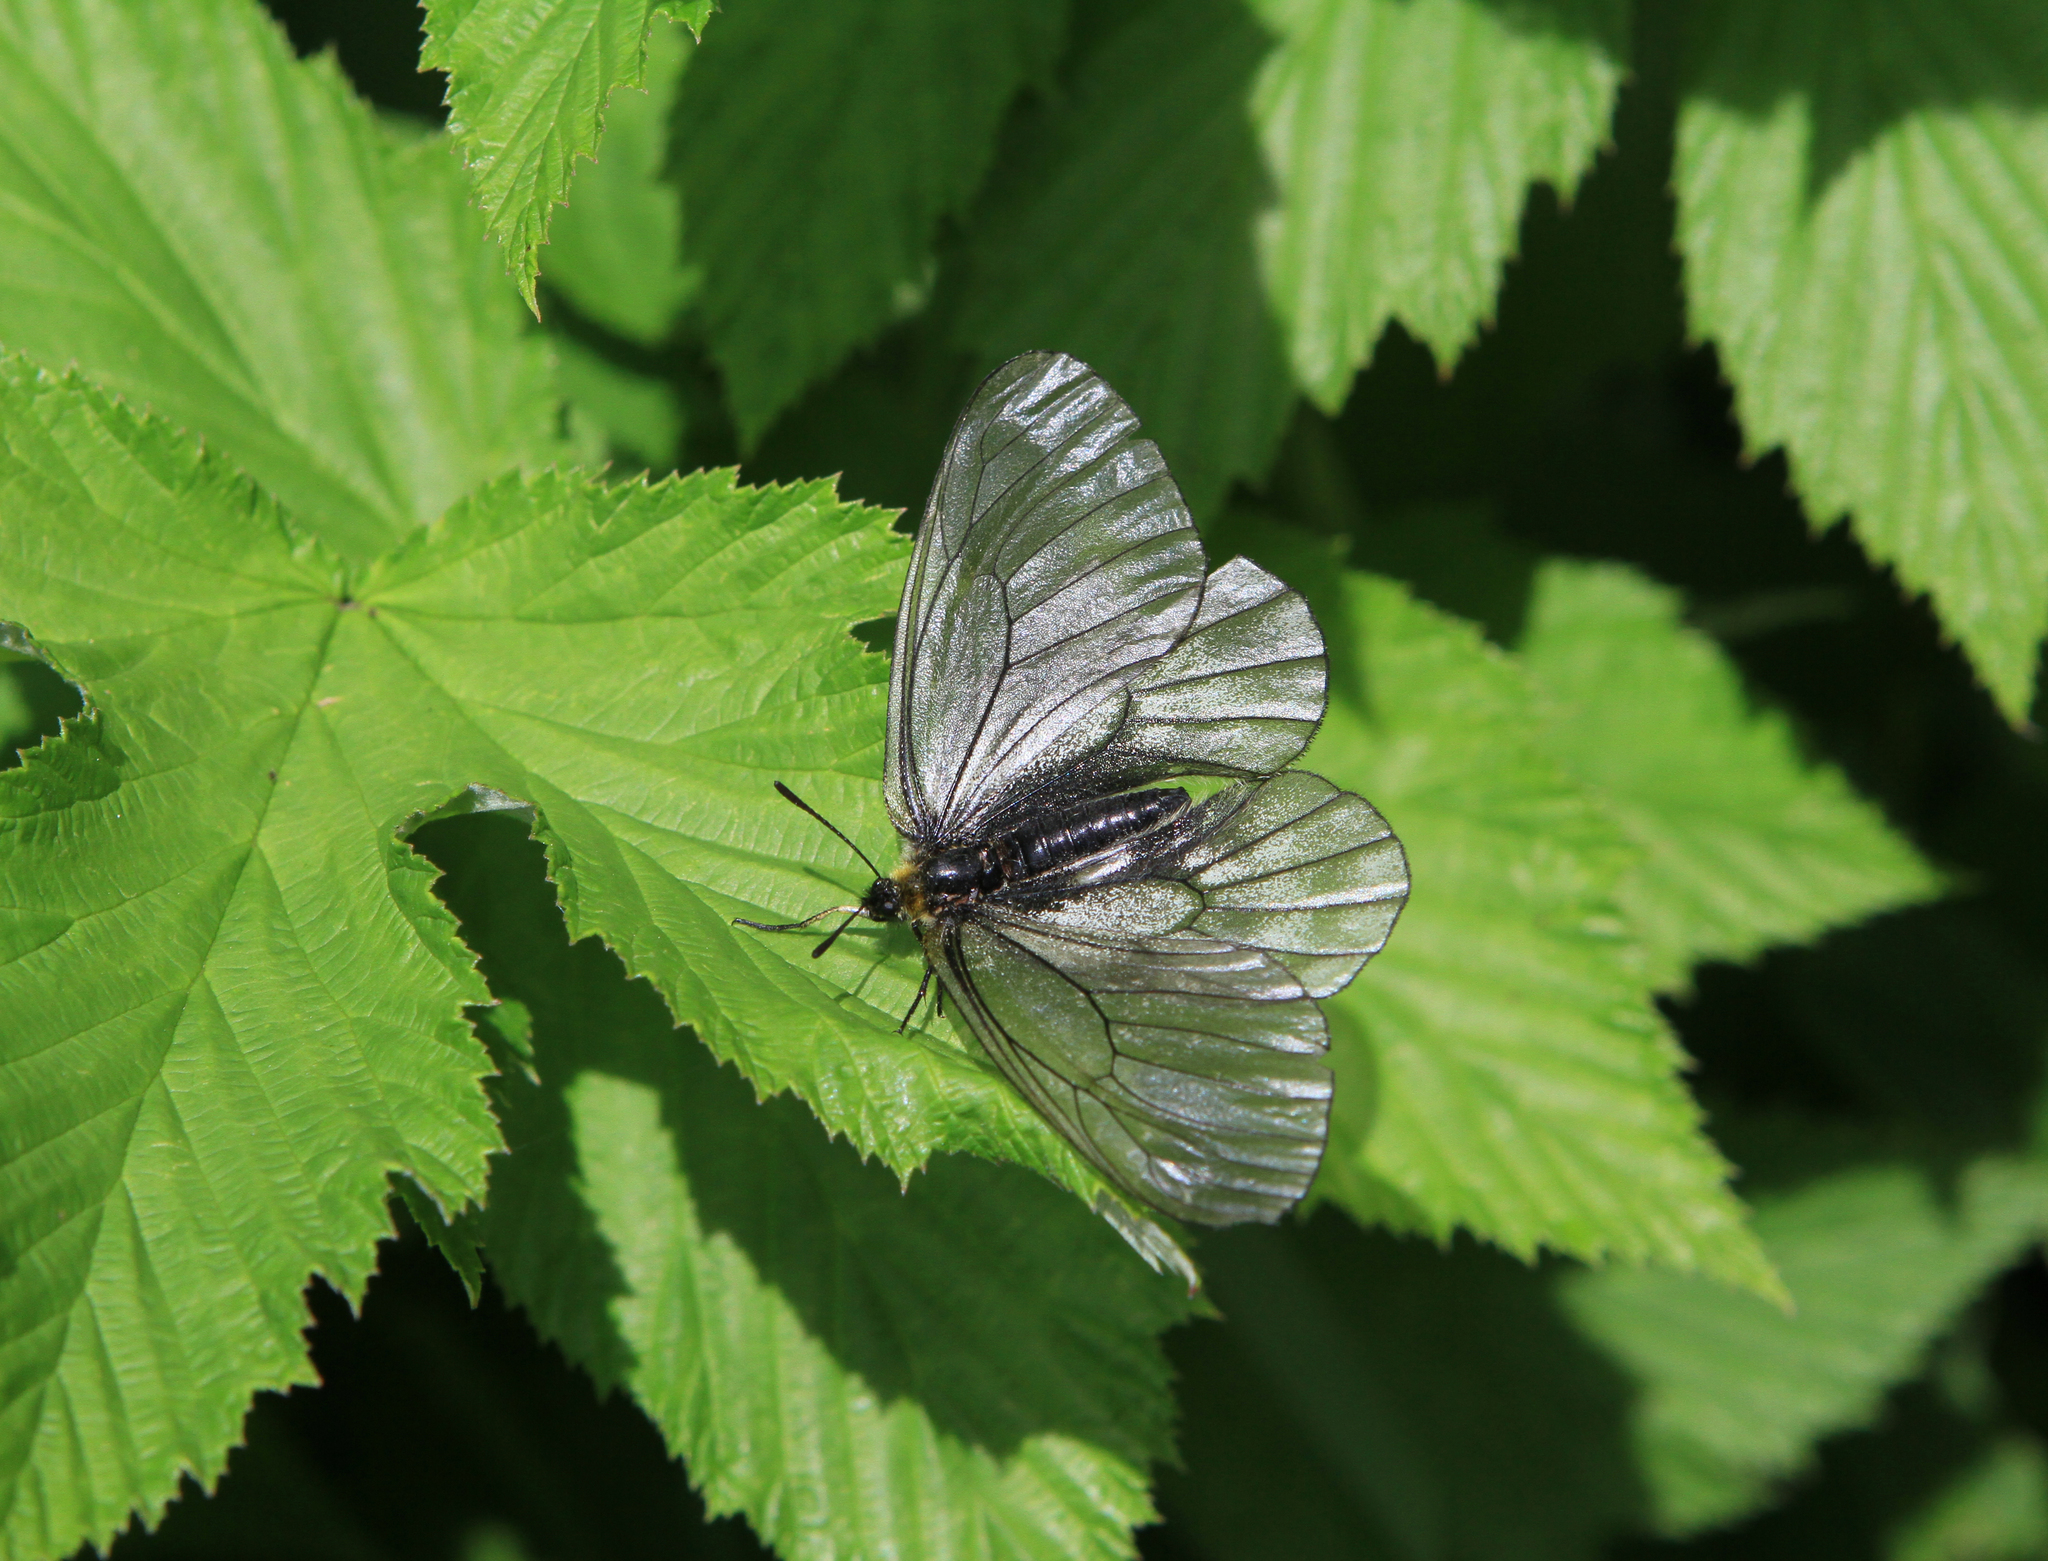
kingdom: Animalia
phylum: Arthropoda
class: Insecta
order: Lepidoptera
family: Papilionidae
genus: Parnassius
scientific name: Parnassius stubbendorfii
